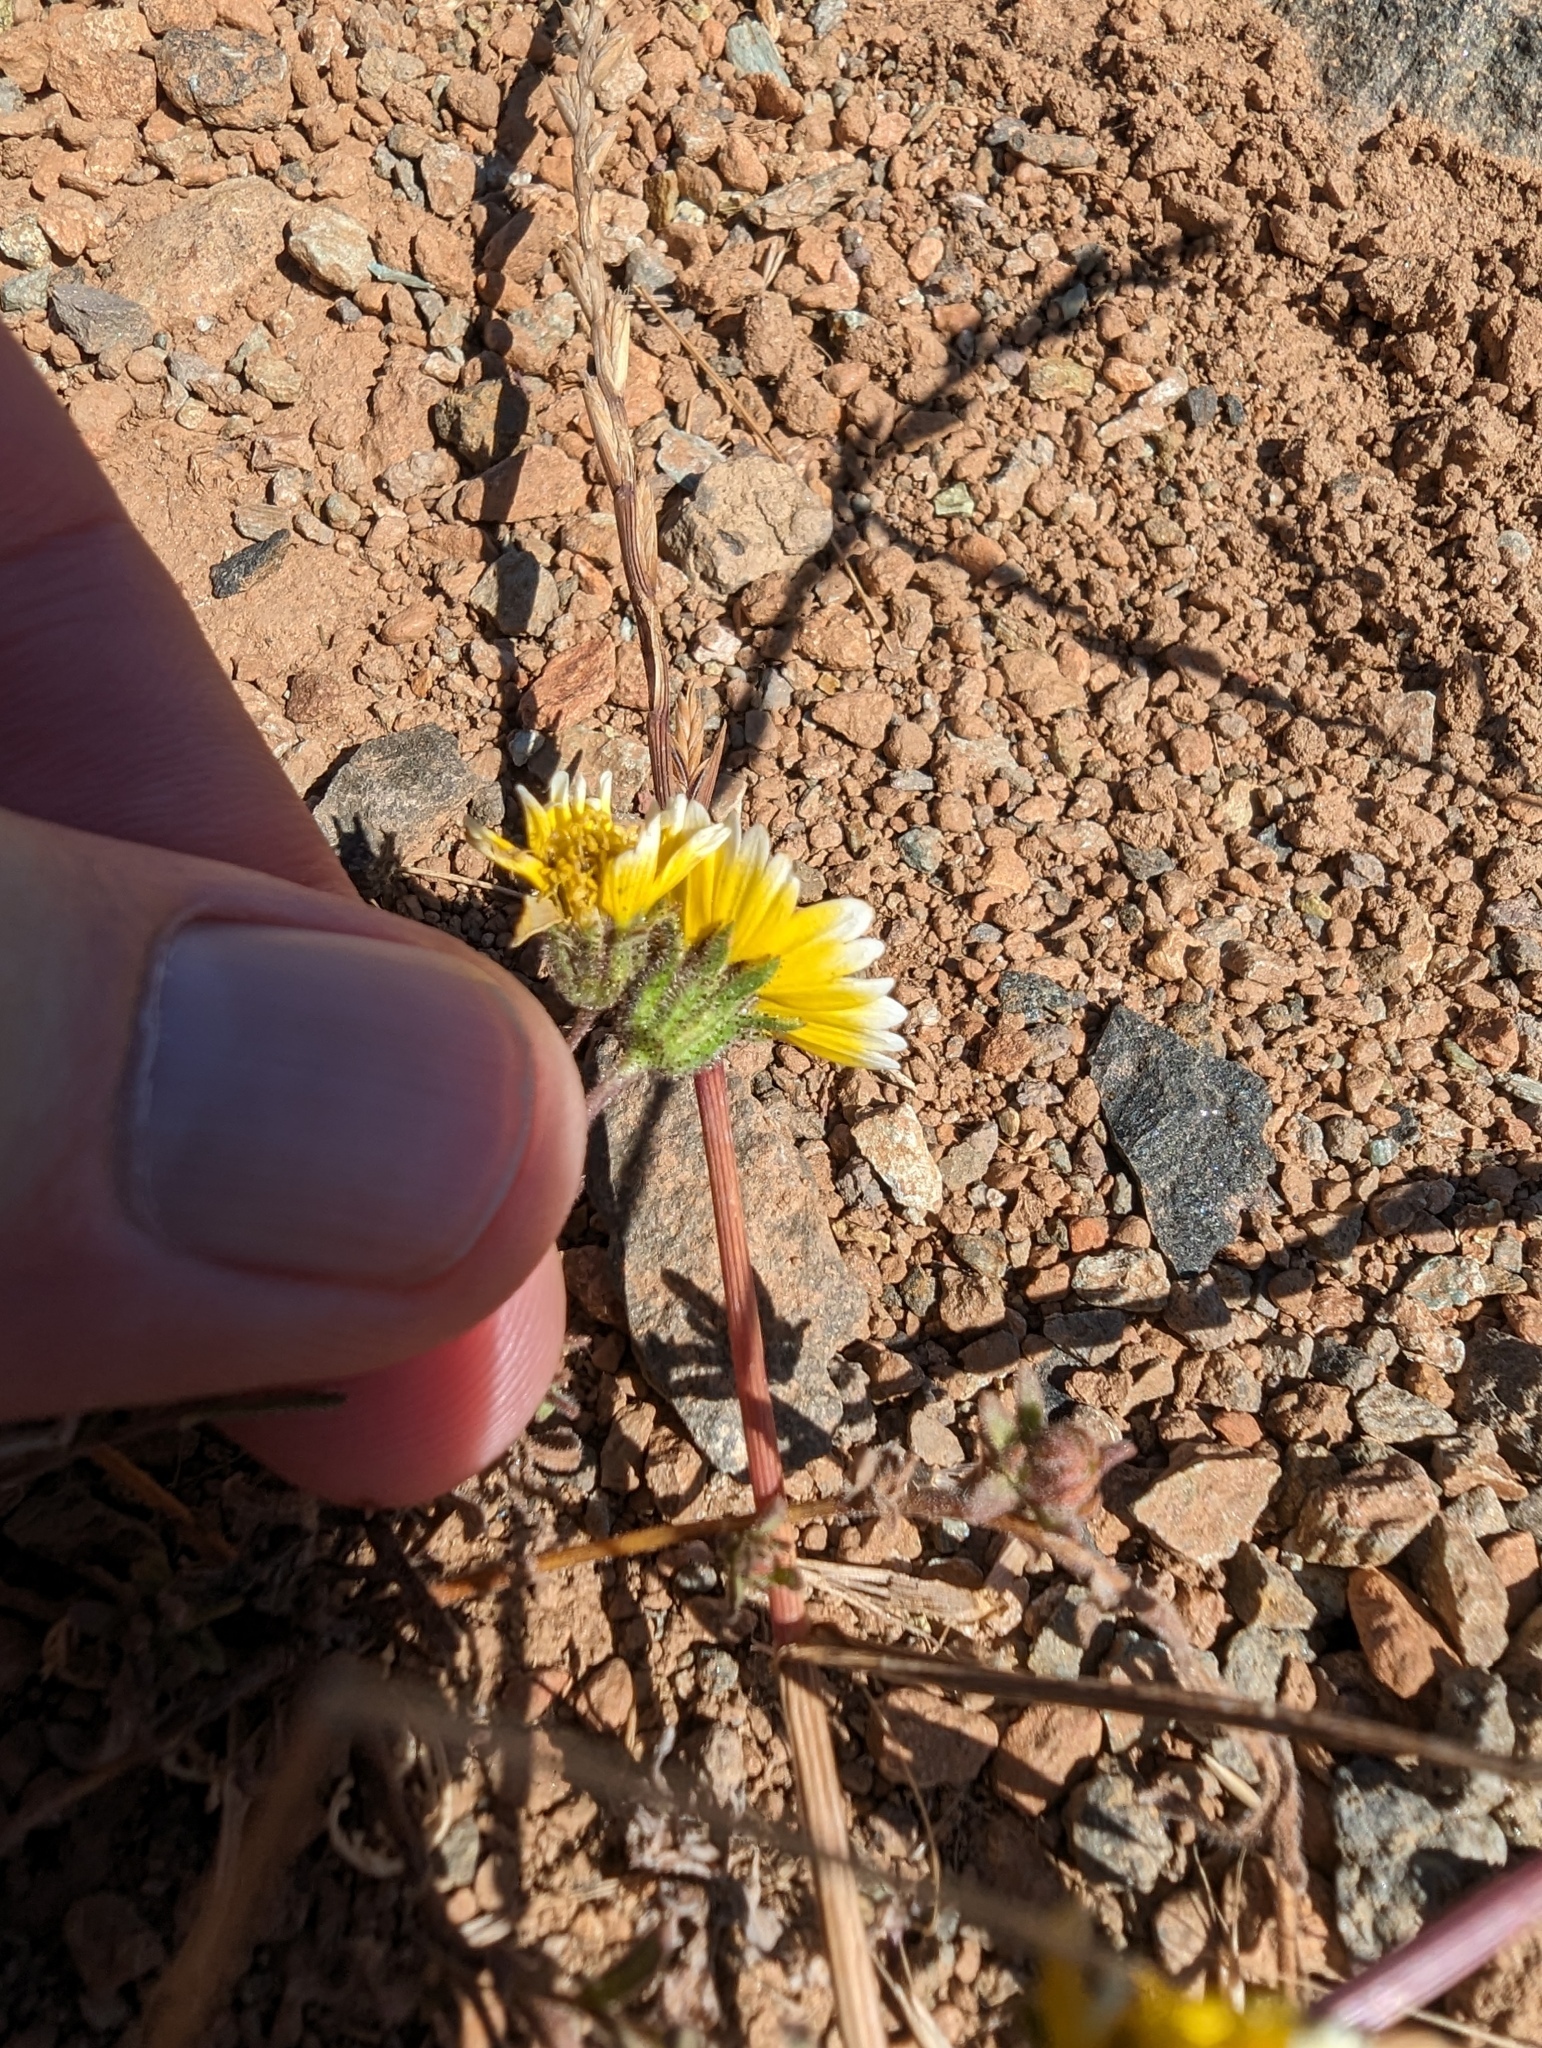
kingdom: Plantae
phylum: Tracheophyta
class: Magnoliopsida
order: Asterales
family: Asteraceae
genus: Layia
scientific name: Layia platyglossa
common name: Tidy-tips
